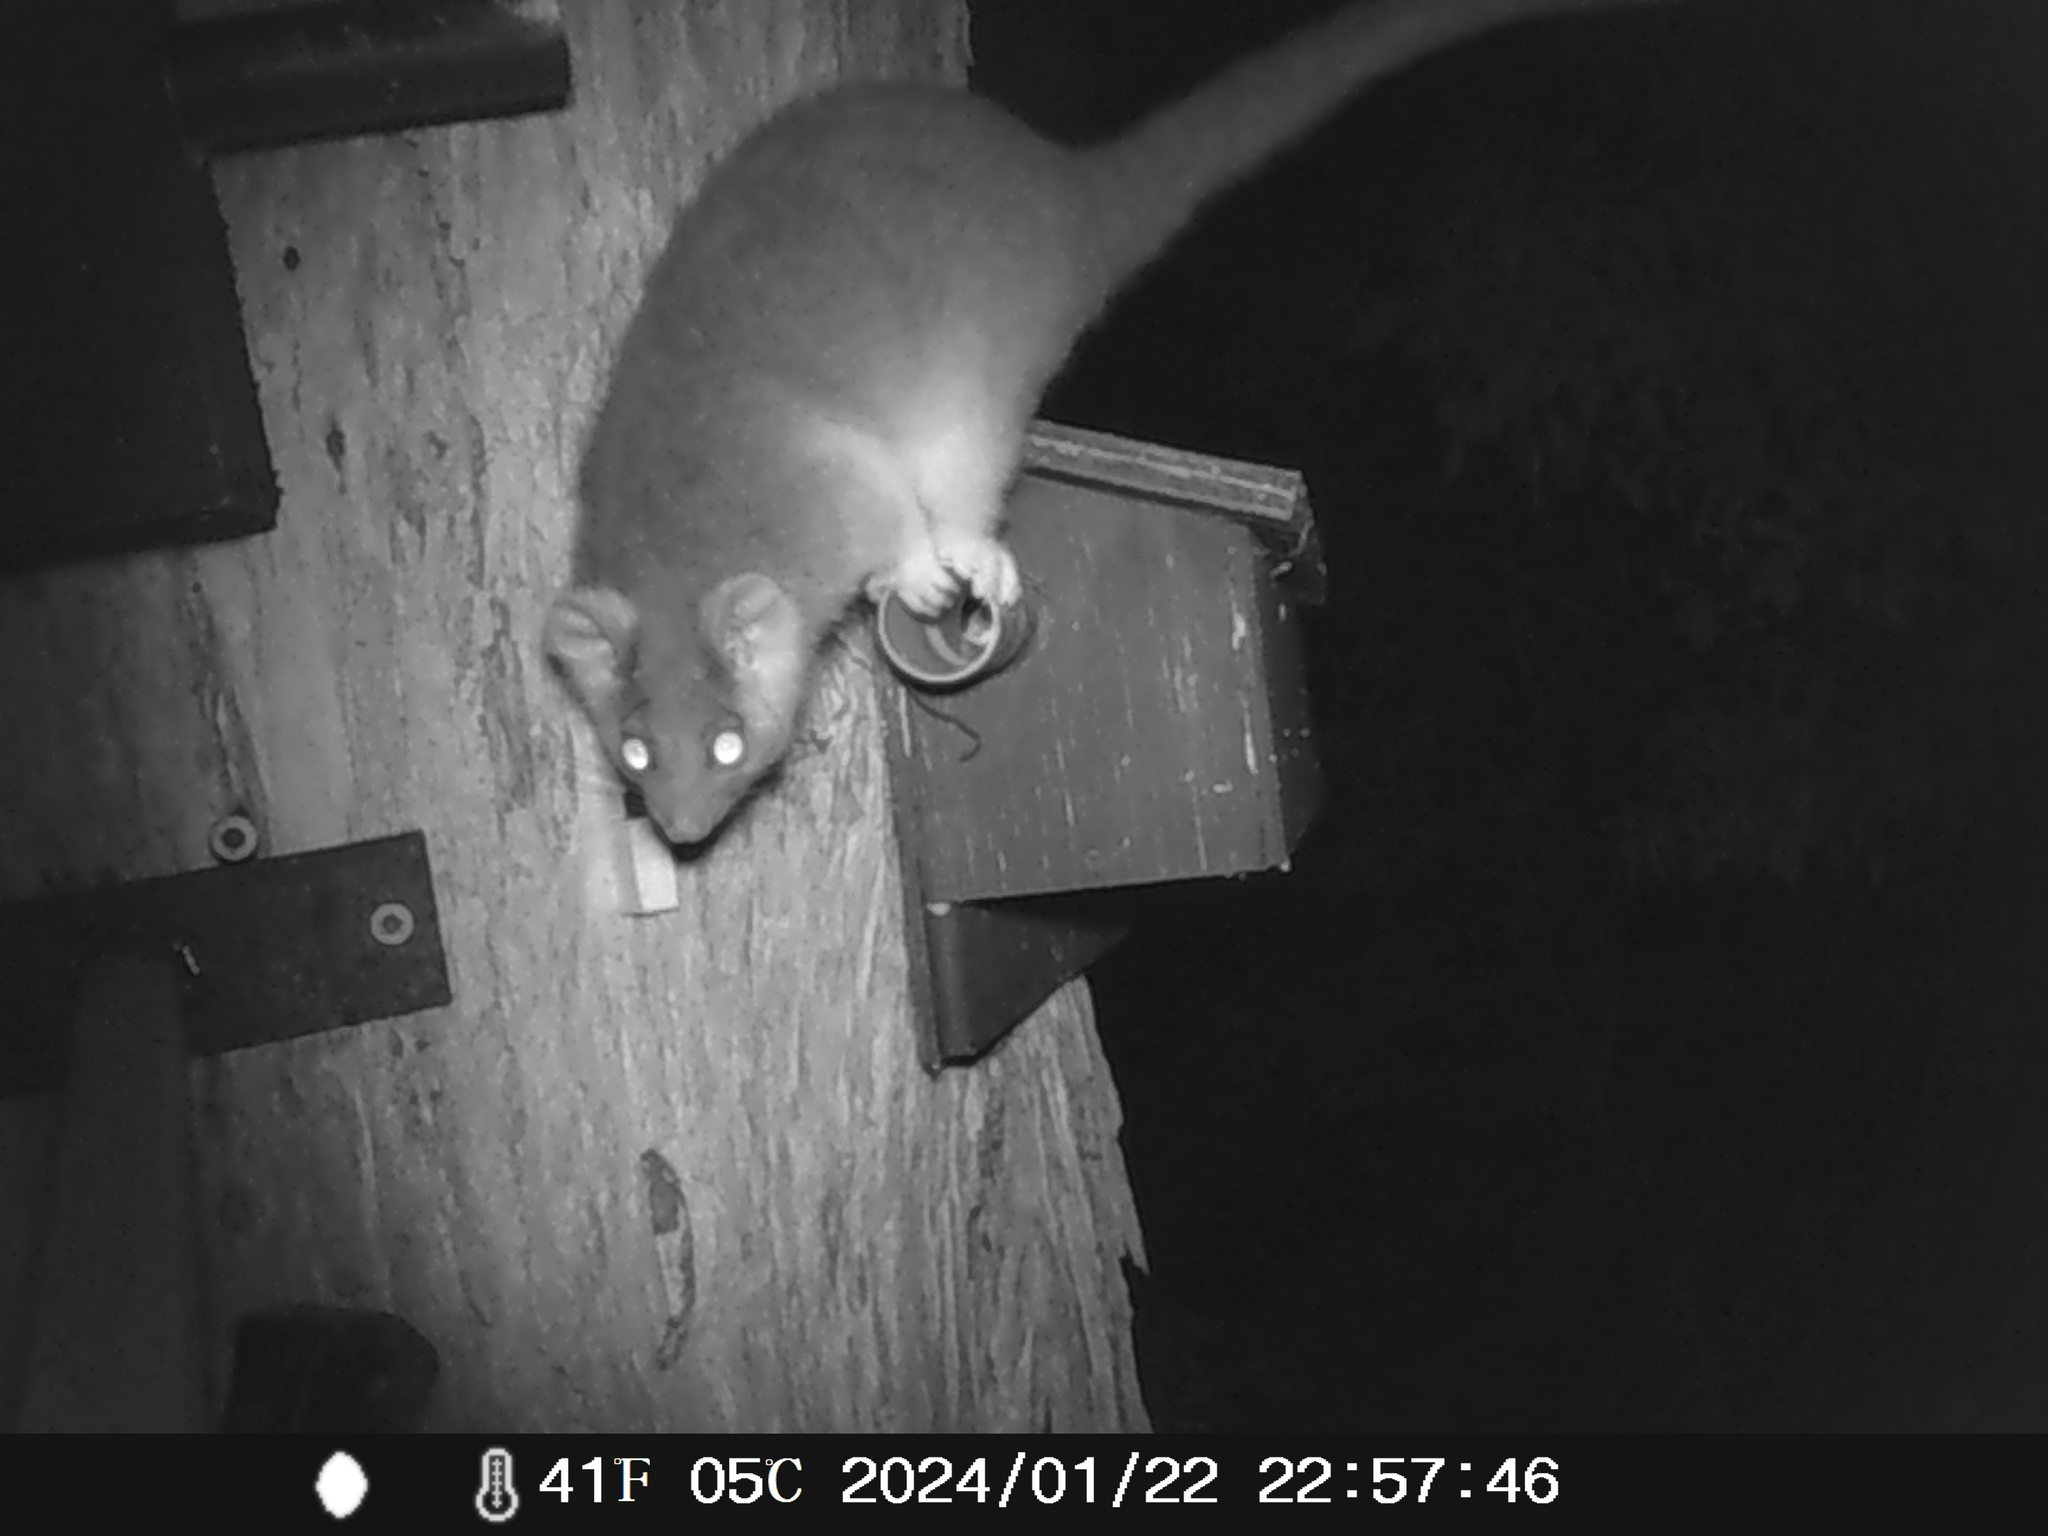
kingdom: Animalia
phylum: Chordata
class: Mammalia
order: Diprotodontia
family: Pseudocheiridae
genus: Pseudocheirus
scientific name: Pseudocheirus peregrinus
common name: Common ringtail possum
